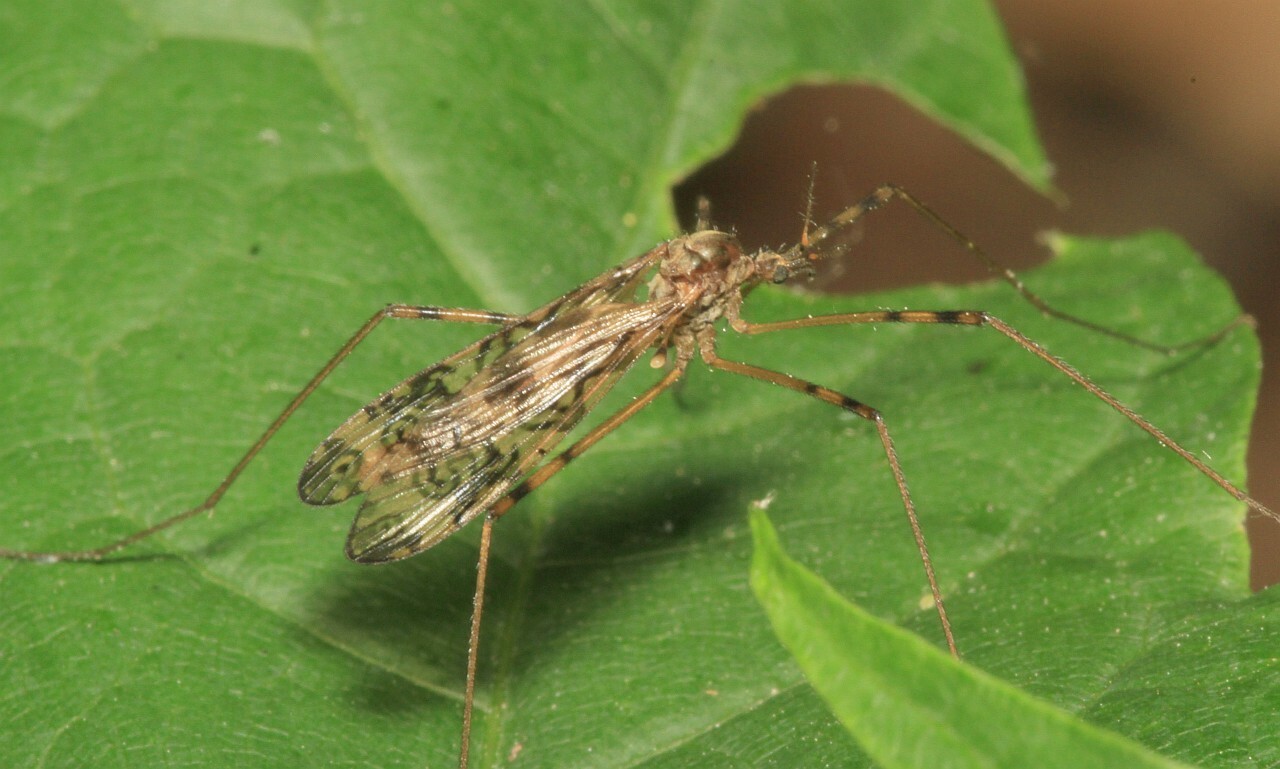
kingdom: Animalia
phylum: Arthropoda
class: Insecta
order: Diptera
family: Limoniidae
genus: Epiphragma
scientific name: Epiphragma ocellare
